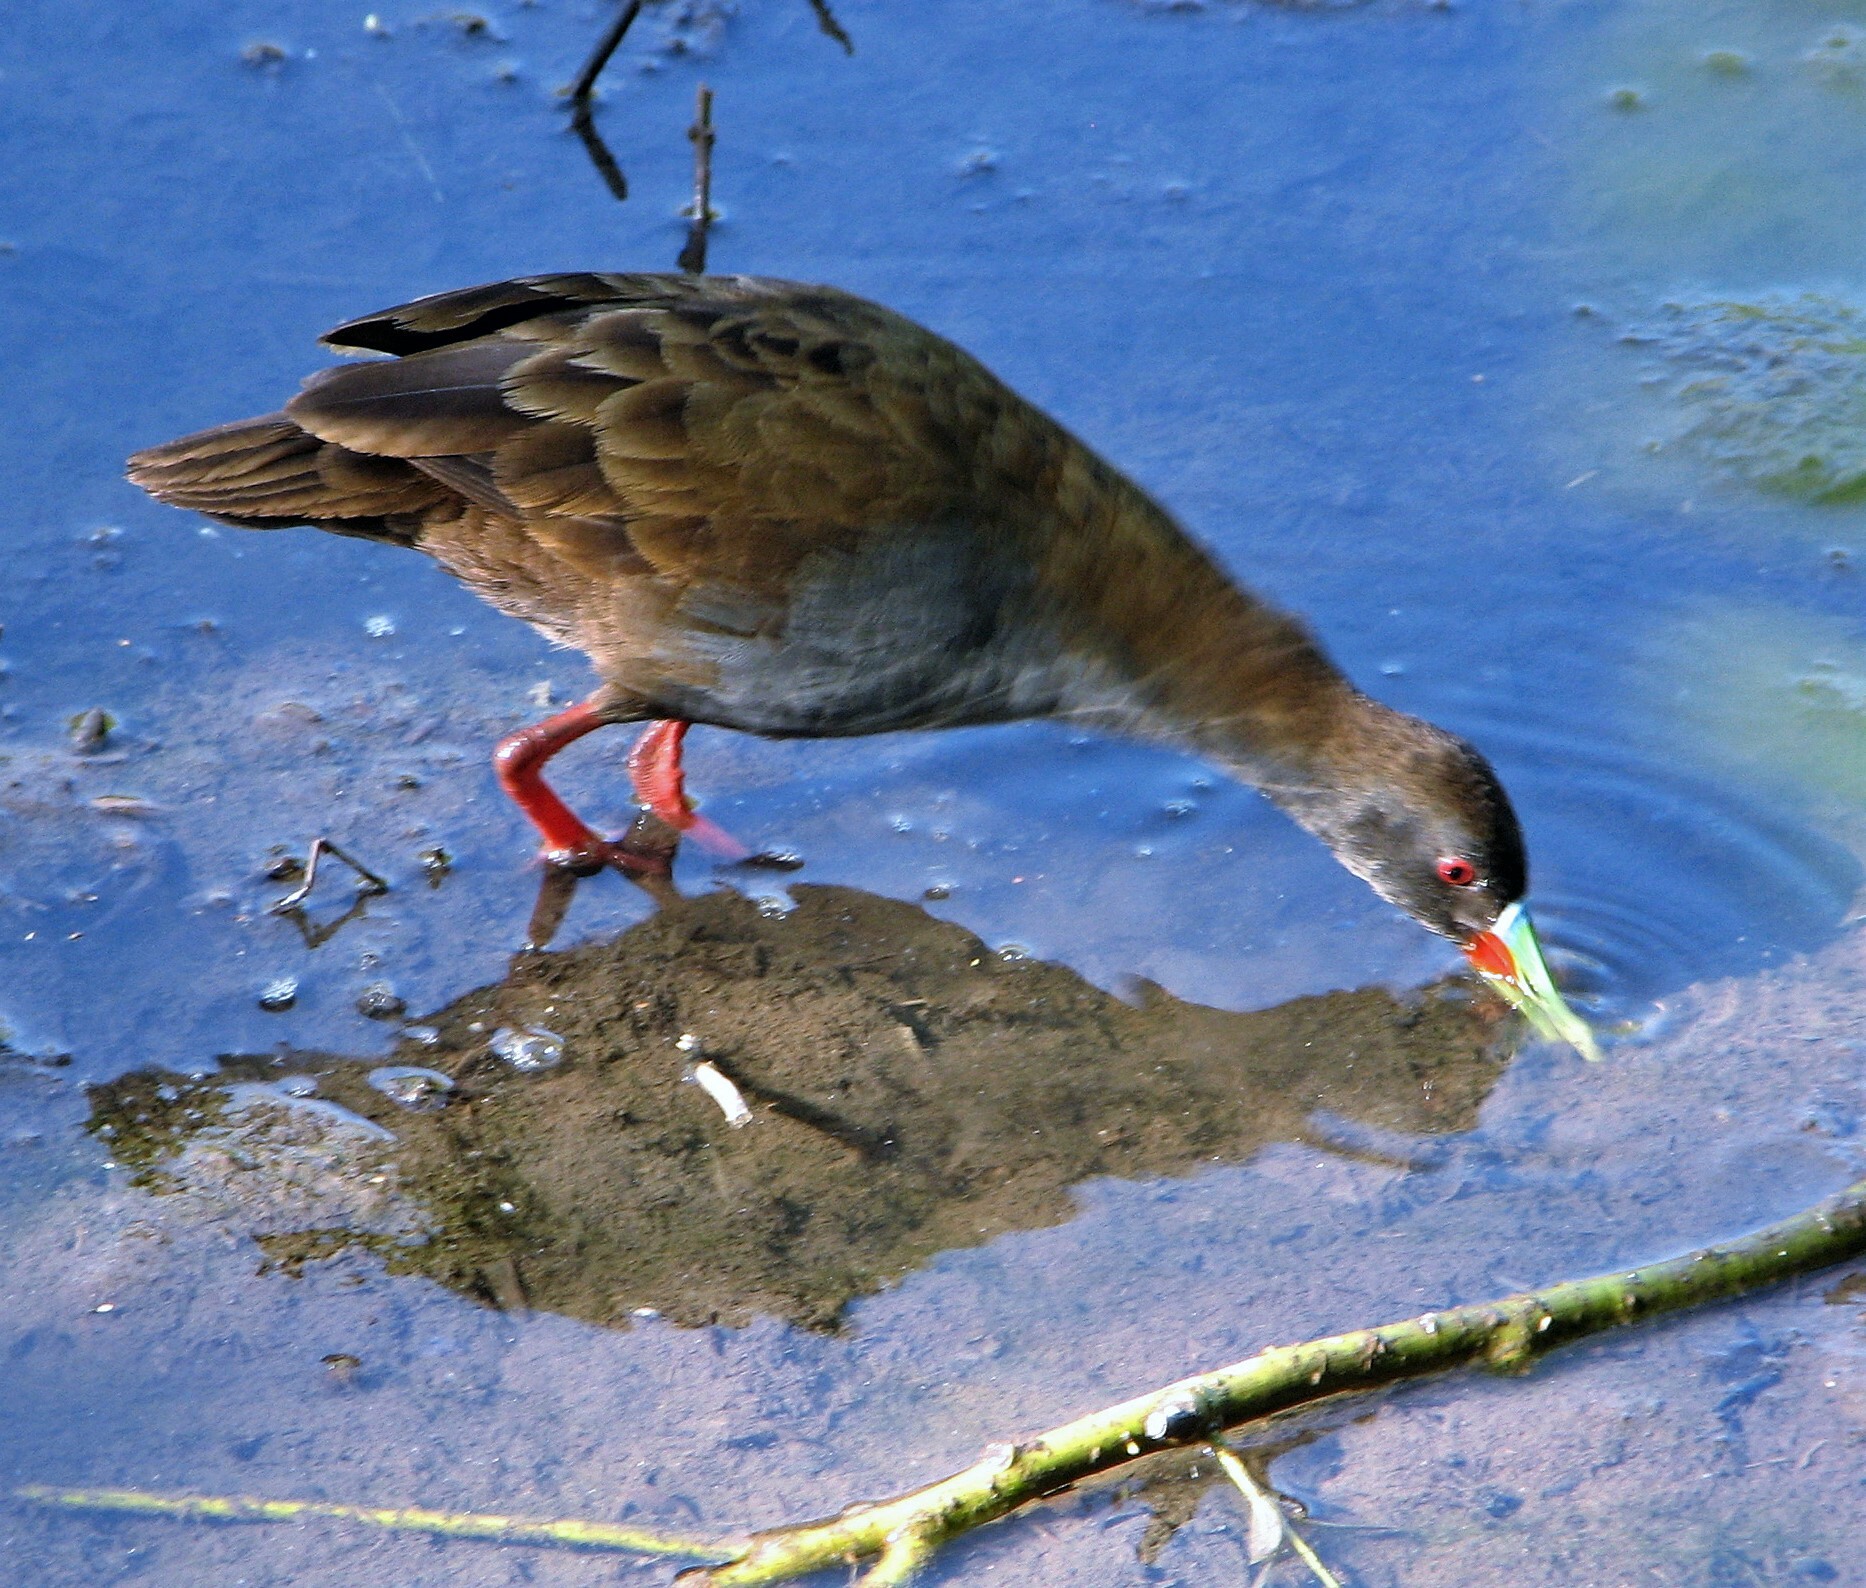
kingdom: Animalia
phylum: Chordata
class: Aves
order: Gruiformes
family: Rallidae
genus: Pardirallus
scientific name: Pardirallus sanguinolentus
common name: Plumbeous rail
